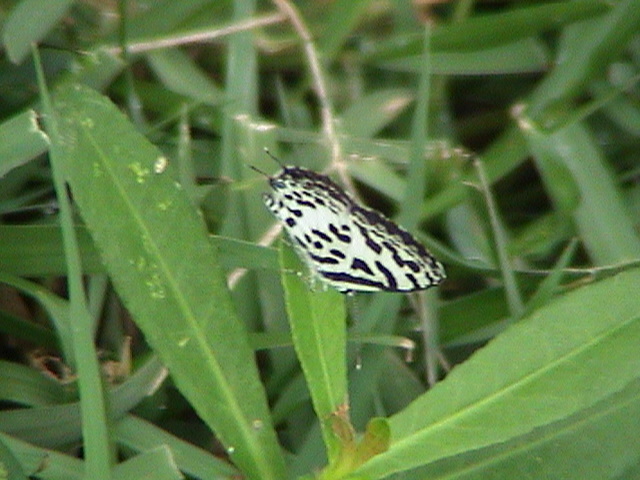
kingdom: Animalia
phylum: Arthropoda
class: Insecta
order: Lepidoptera
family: Lycaenidae
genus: Castalius
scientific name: Castalius rosimon
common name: Common pierrot
